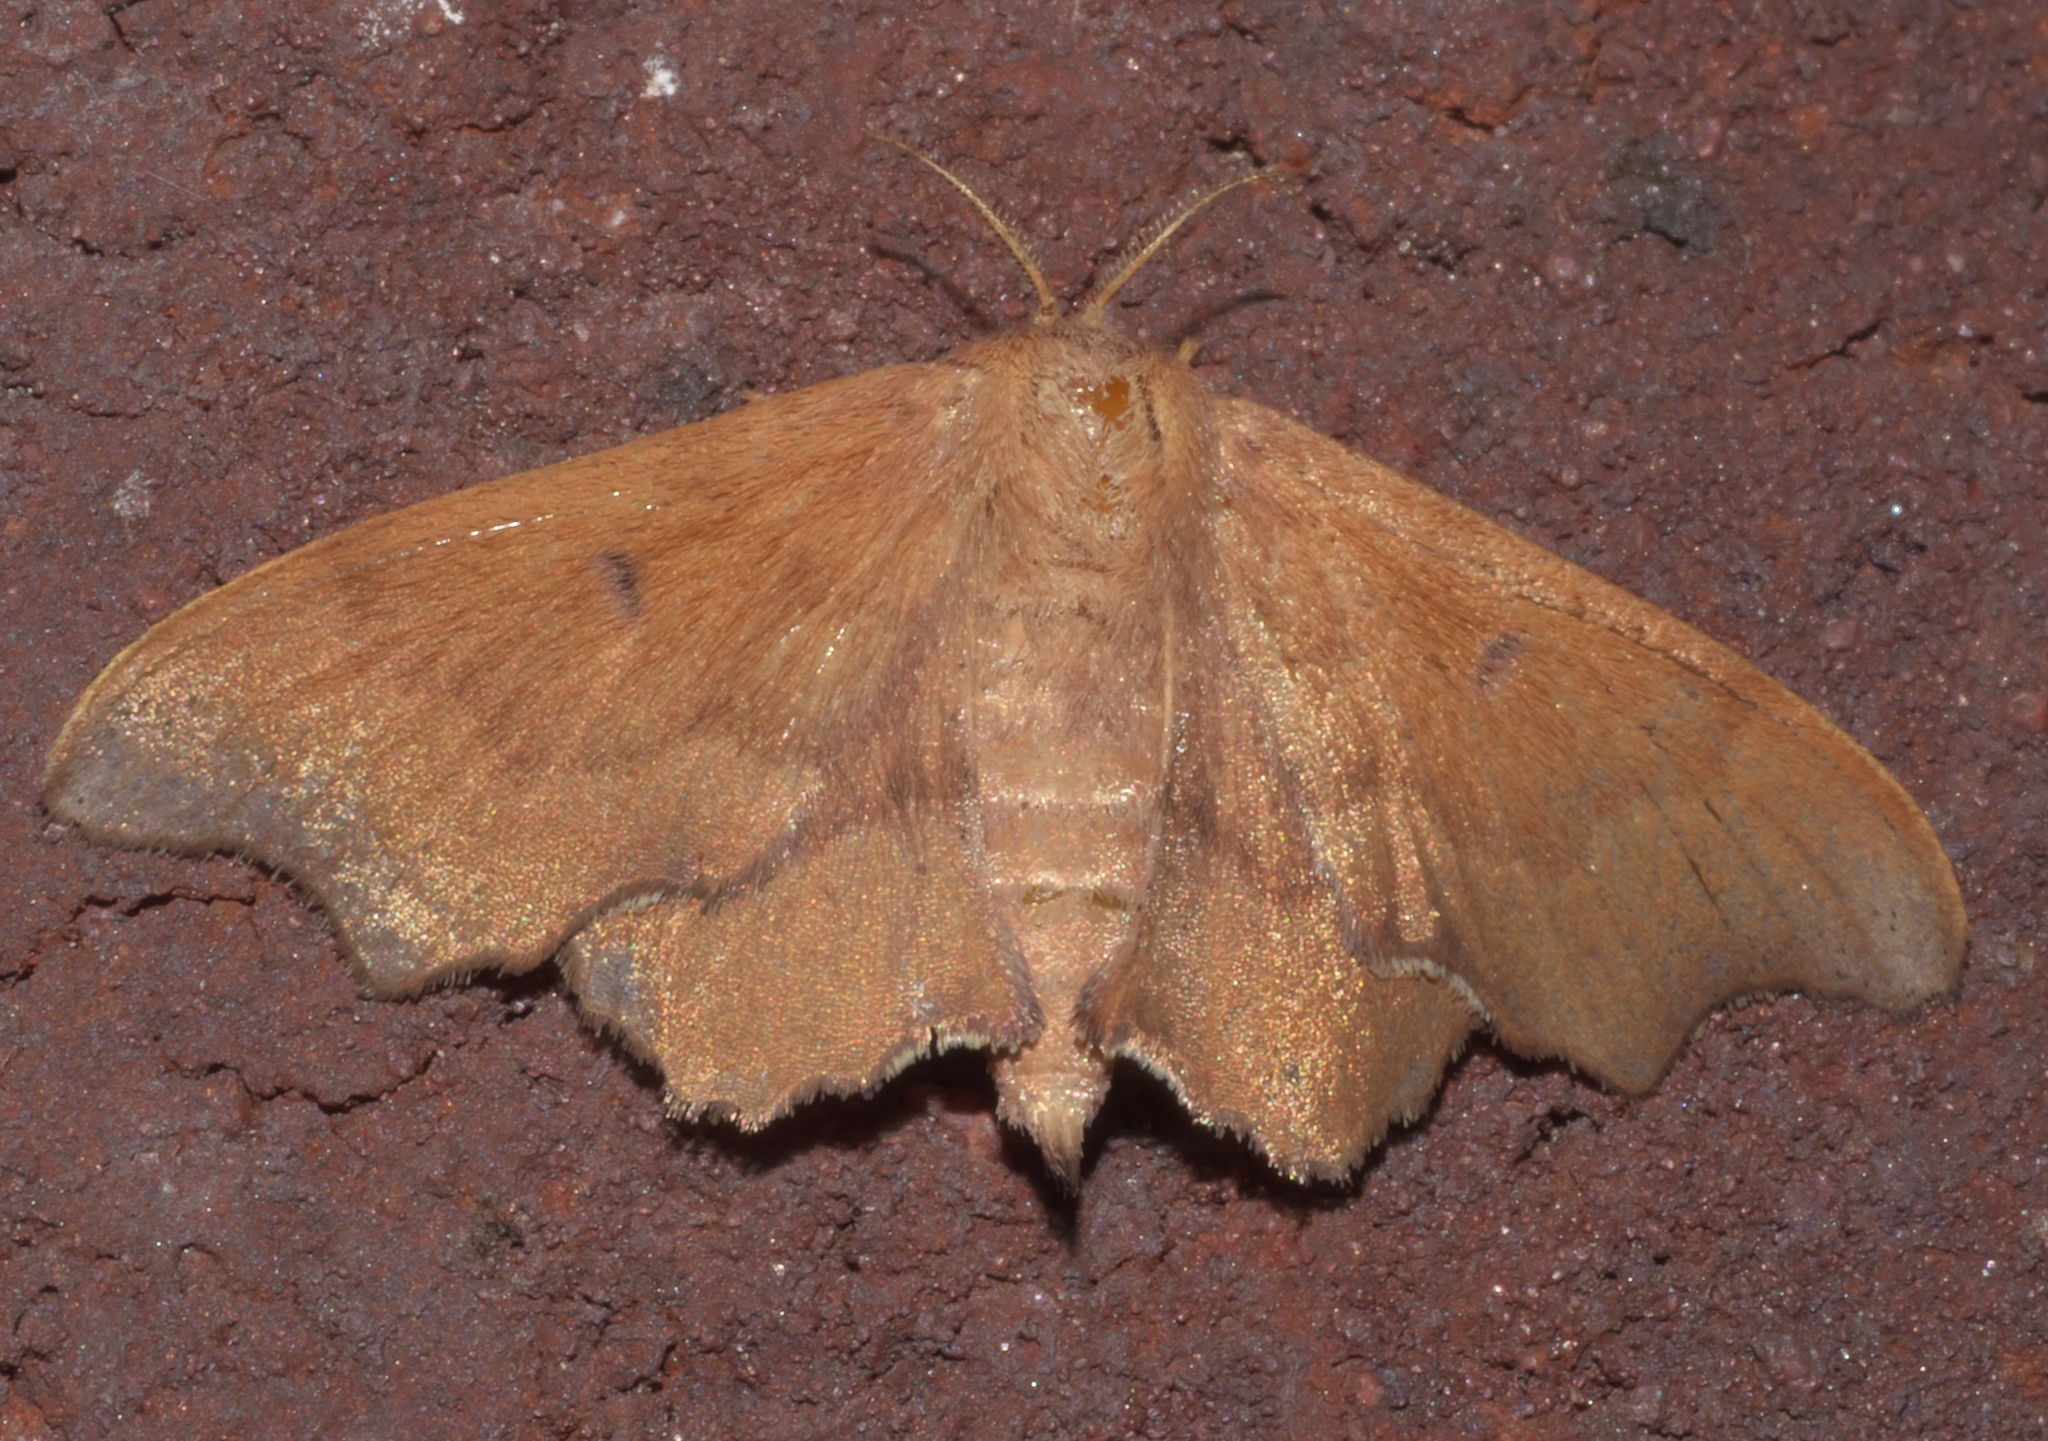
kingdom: Animalia
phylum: Arthropoda
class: Insecta
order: Lepidoptera
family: Mimallonidae
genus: Lacosoma
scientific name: Lacosoma chiridota
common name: Scalloped sack-bearer moth
